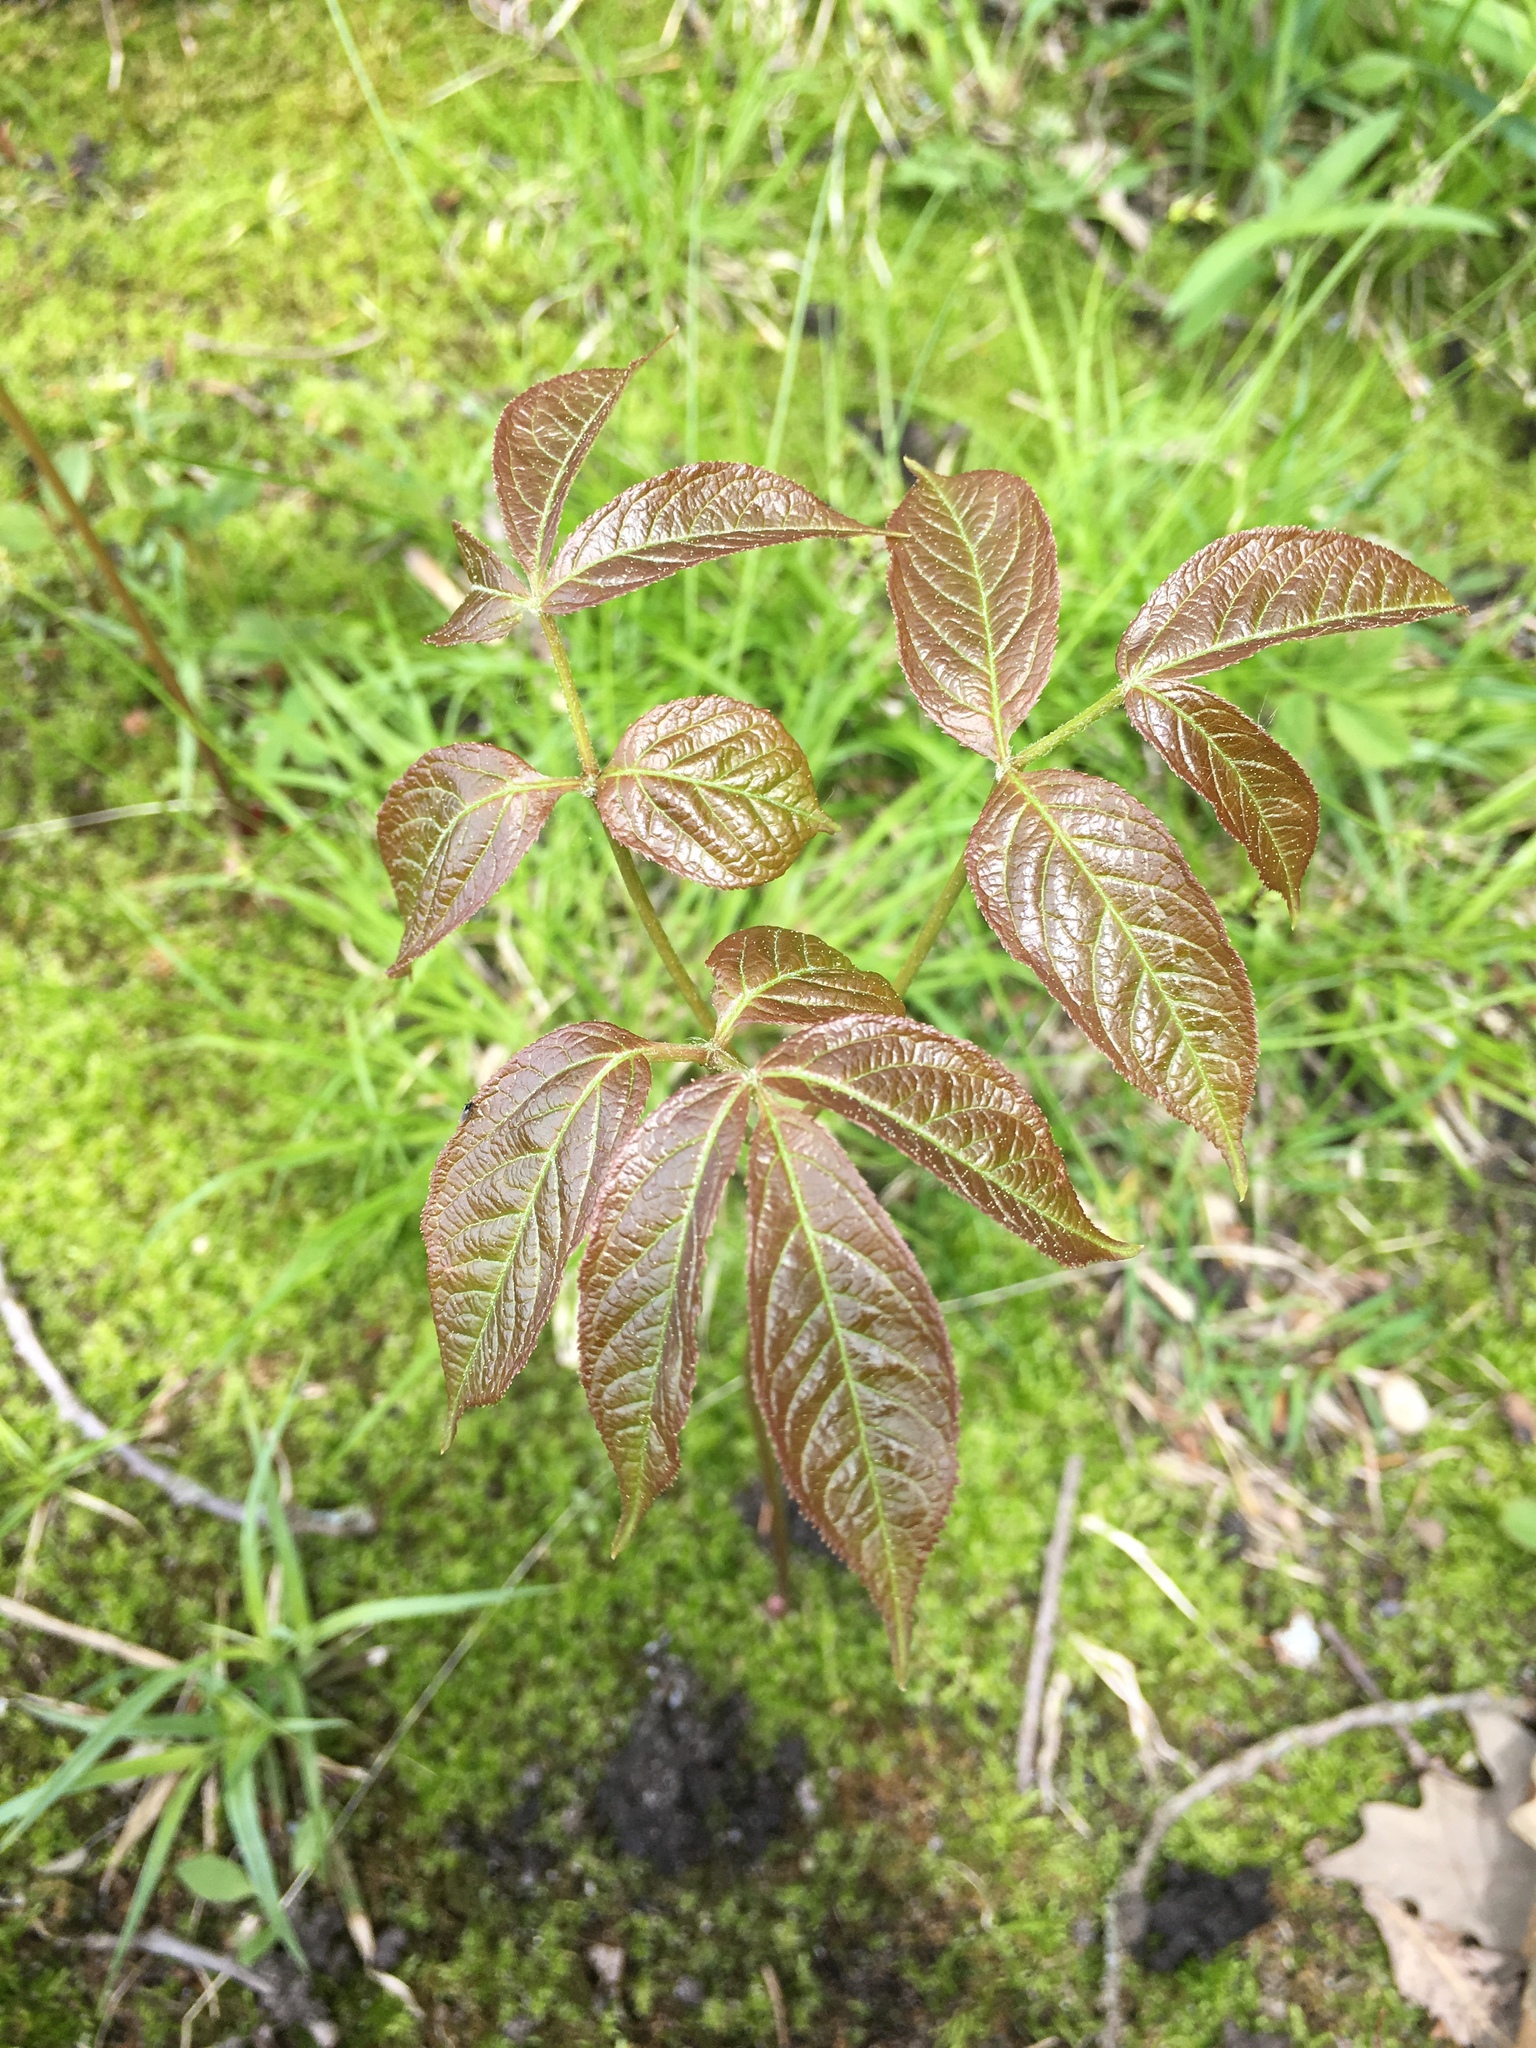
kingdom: Plantae
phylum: Tracheophyta
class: Magnoliopsida
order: Apiales
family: Araliaceae
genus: Aralia
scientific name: Aralia nudicaulis
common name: Wild sarsaparilla
